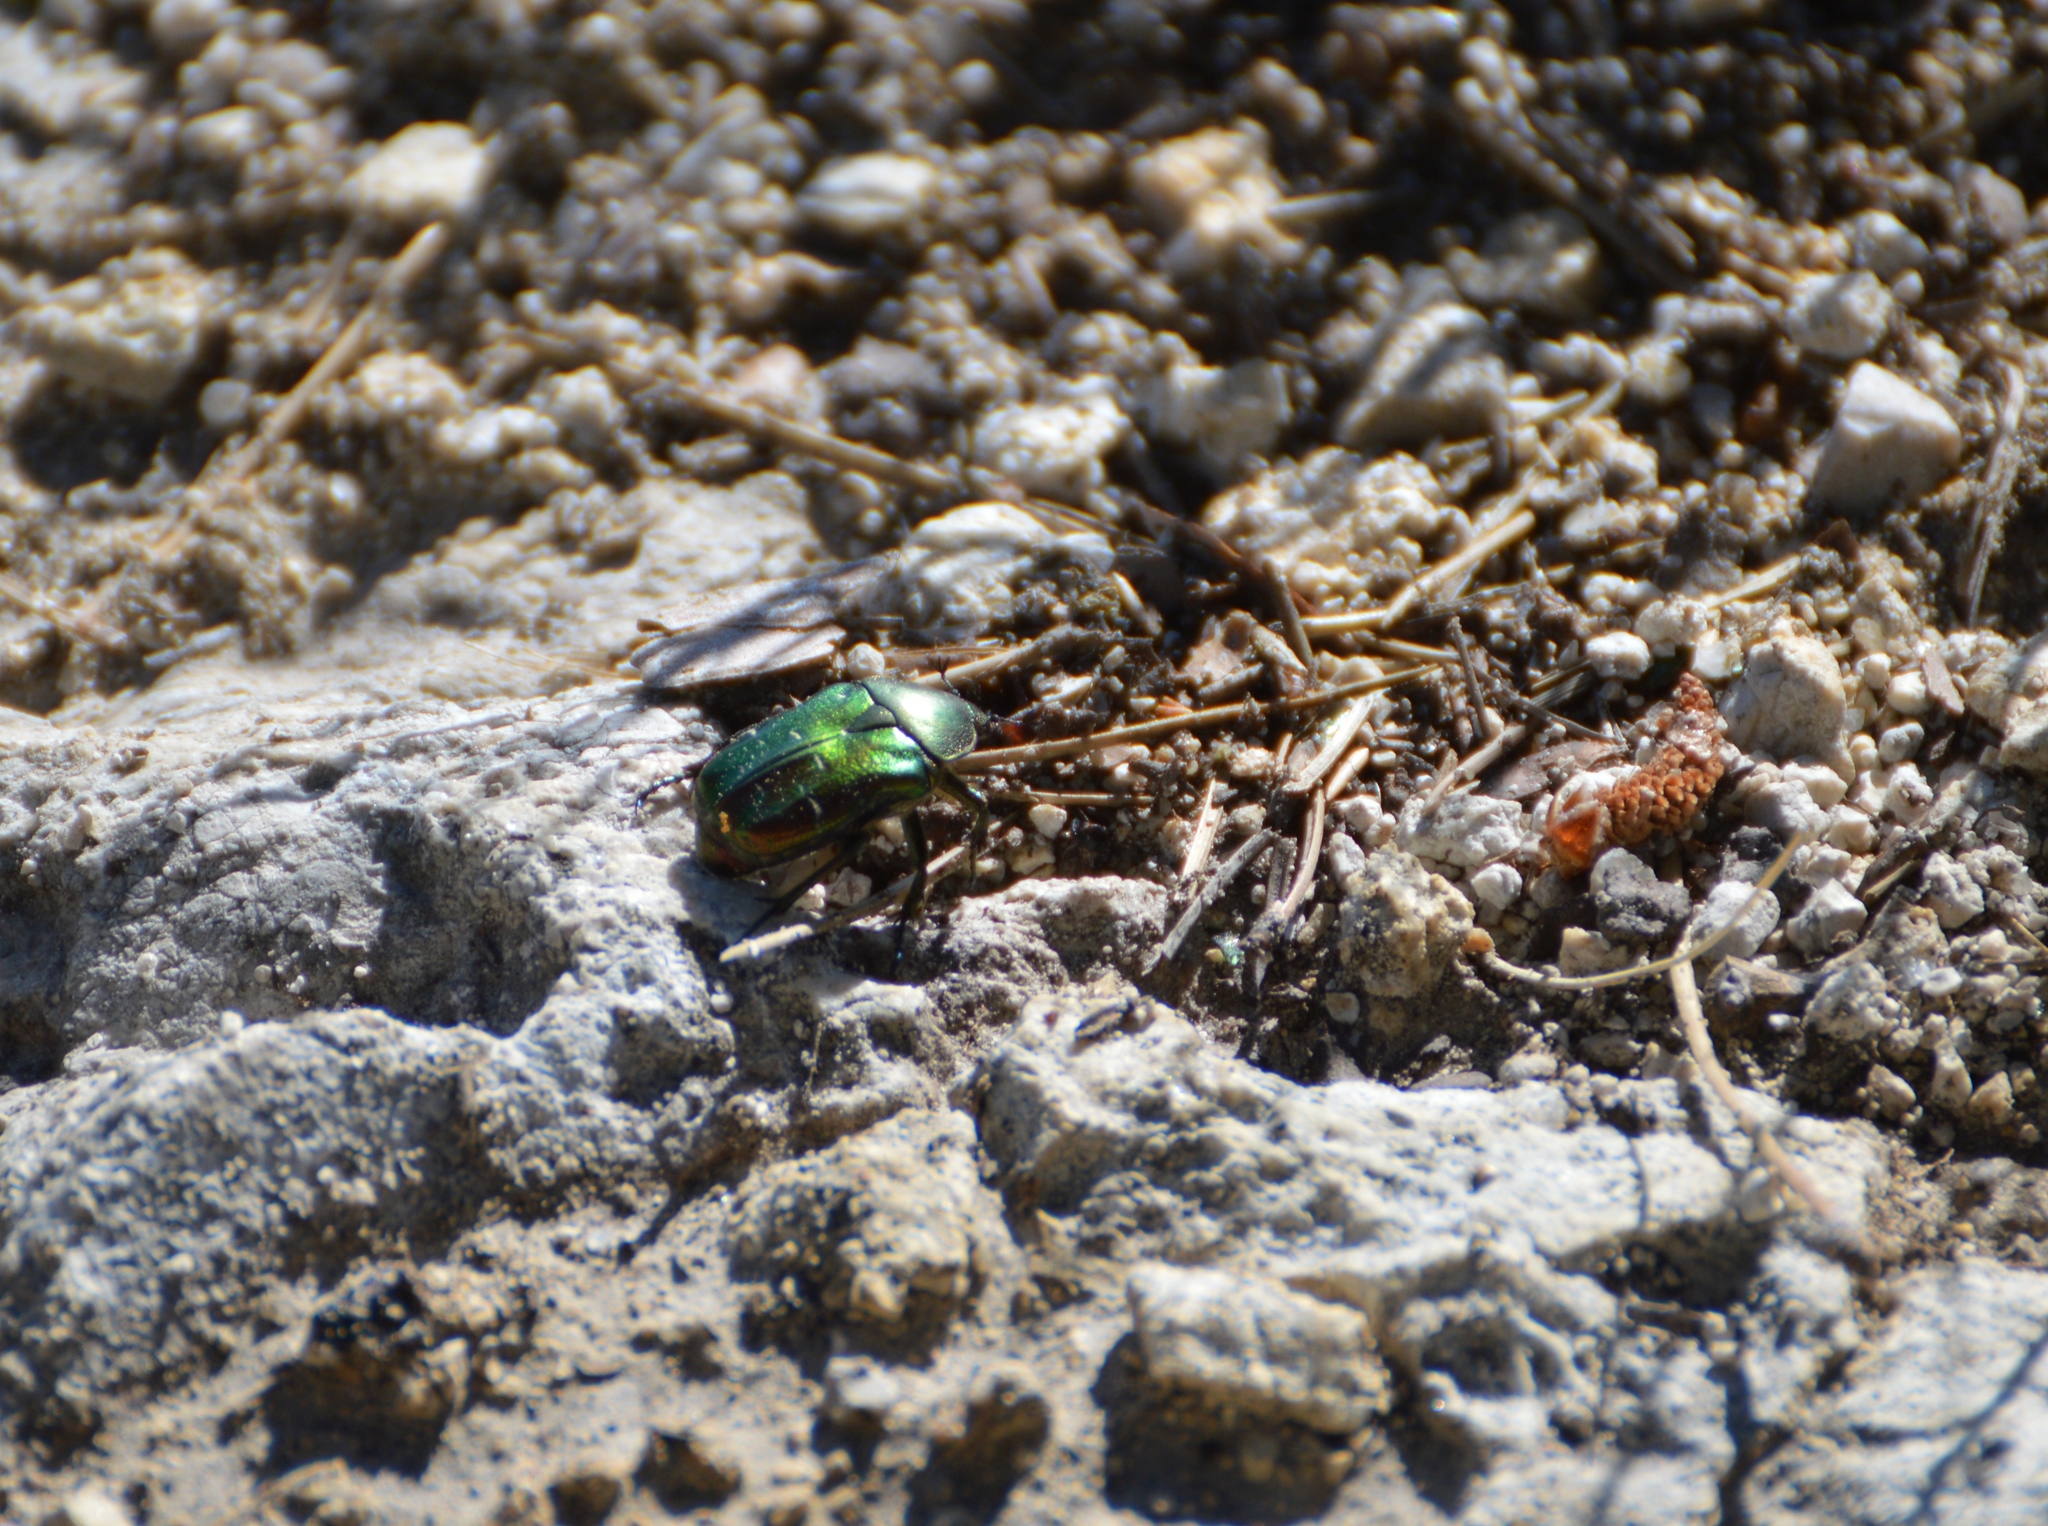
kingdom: Animalia
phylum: Arthropoda
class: Insecta
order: Coleoptera
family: Scarabaeidae
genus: Cetonia
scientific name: Cetonia aurata
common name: Rose chafer
